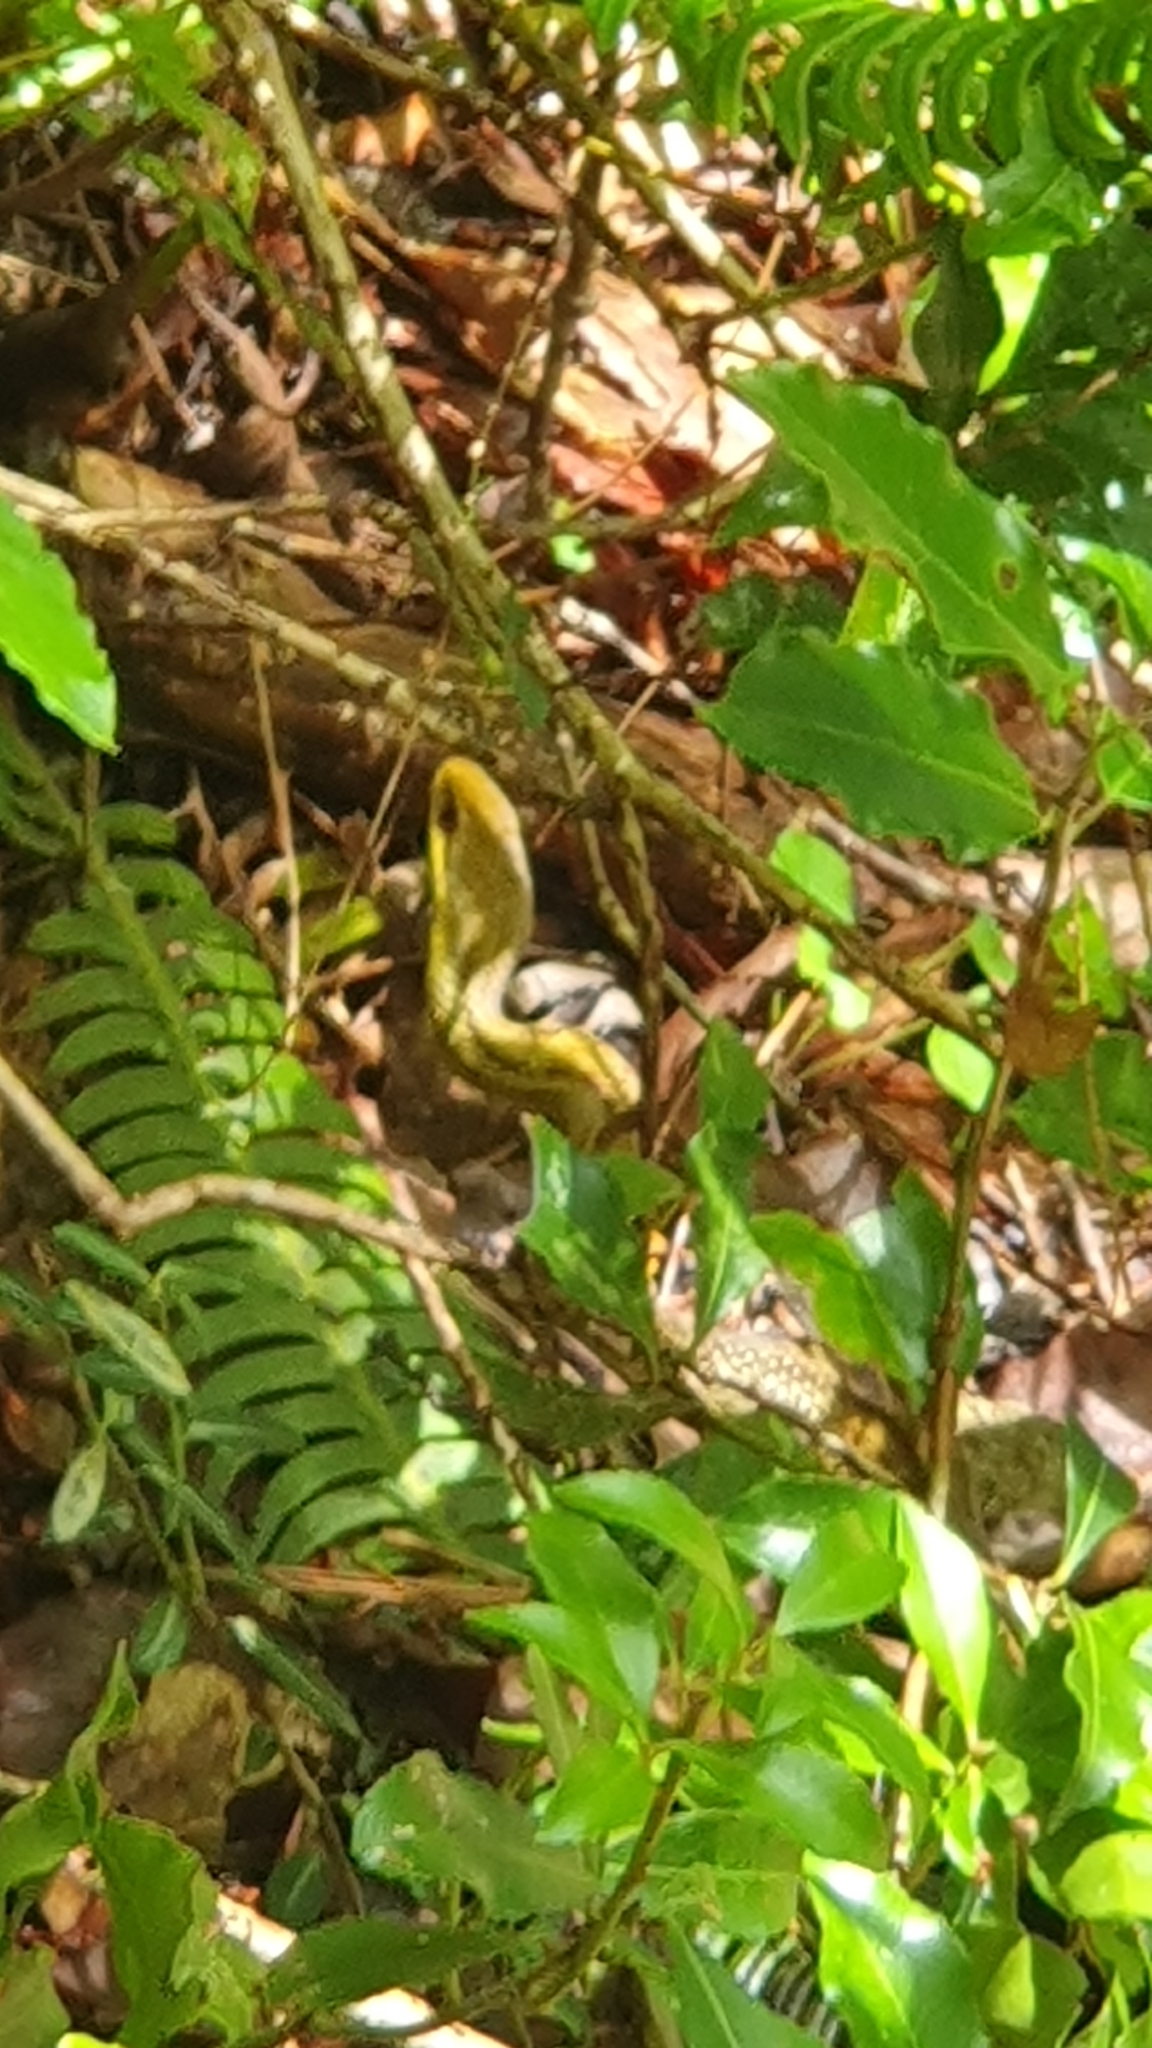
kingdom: Animalia
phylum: Chordata
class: Squamata
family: Colubridae
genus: Elaphe
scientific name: Elaphe quadrivirgata
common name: Japanese four-lined ratsnake
